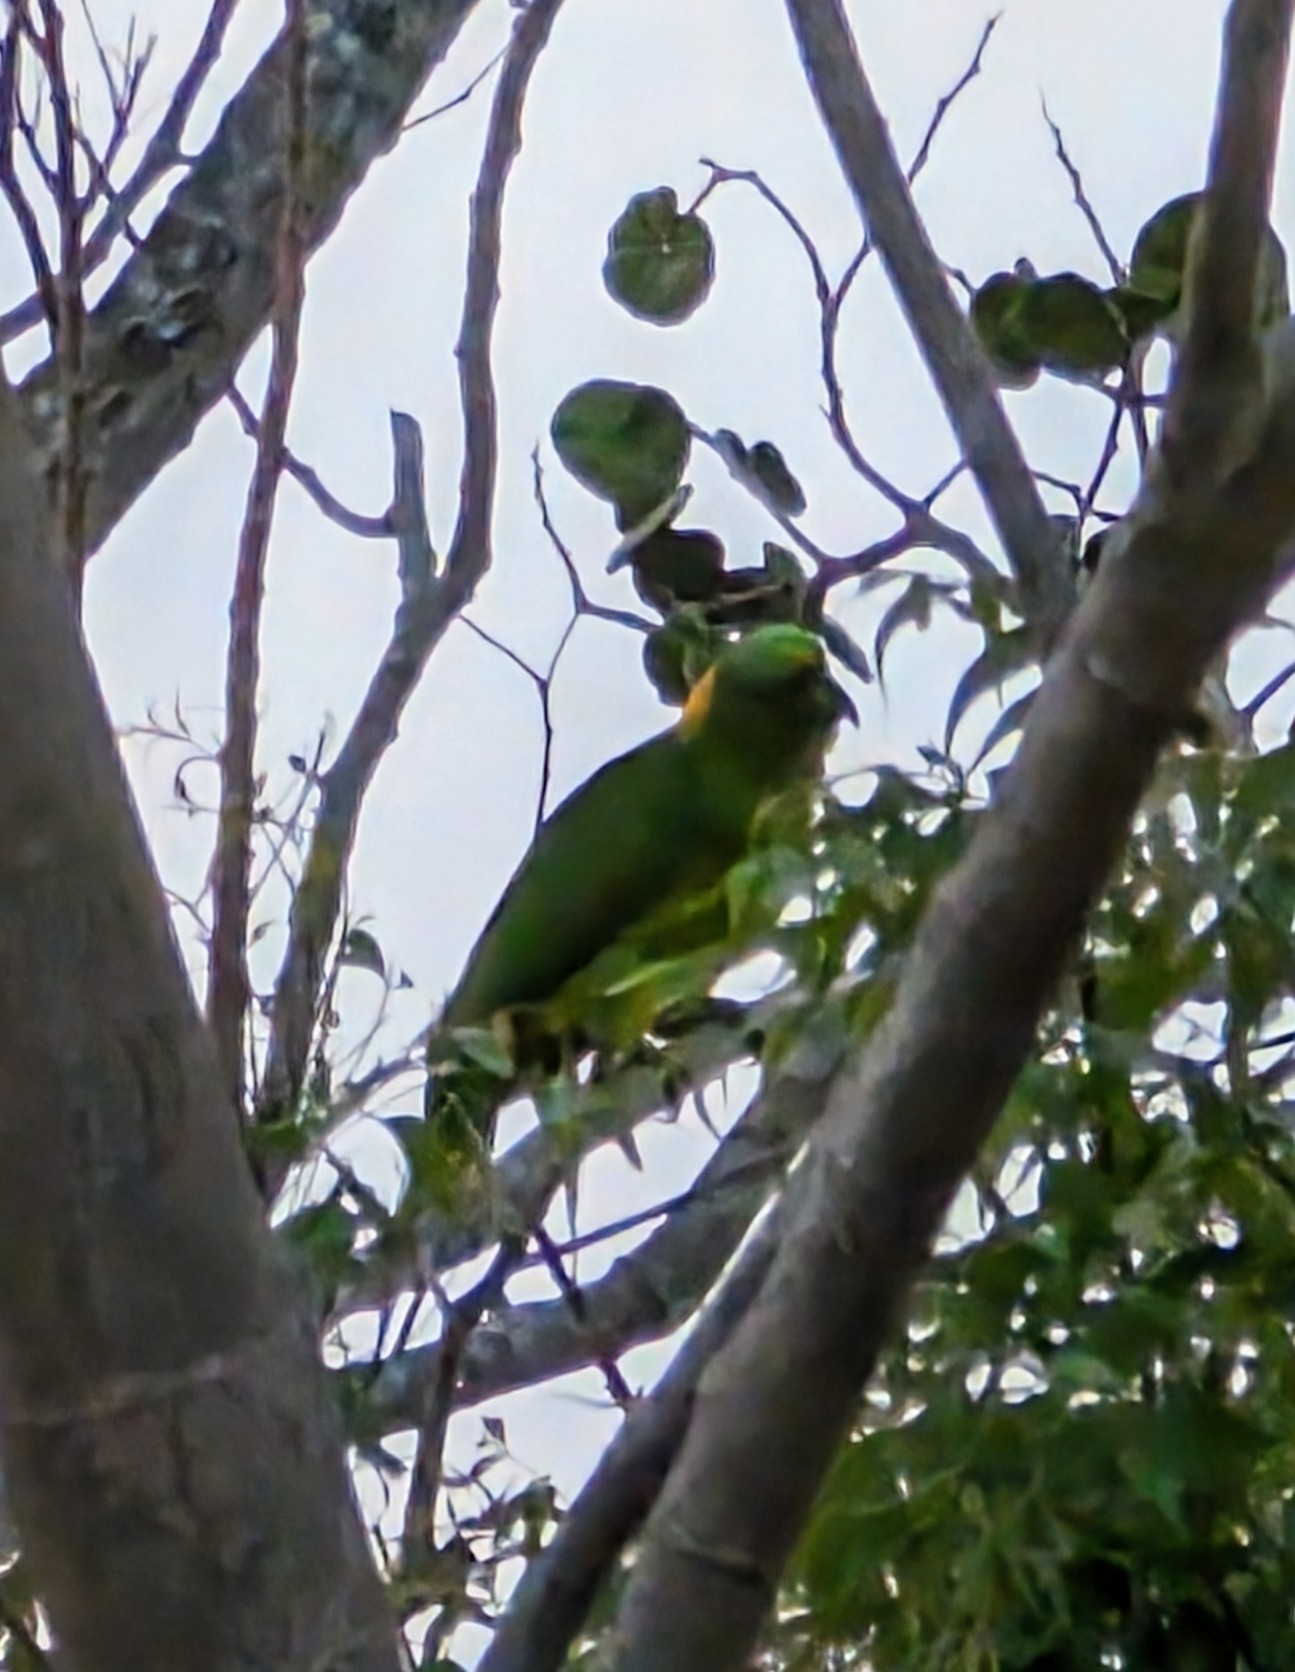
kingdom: Animalia
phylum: Chordata
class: Aves
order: Psittaciformes
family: Psittacidae
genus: Amazona
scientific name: Amazona auropalliata
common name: Yellow-naped amazon
